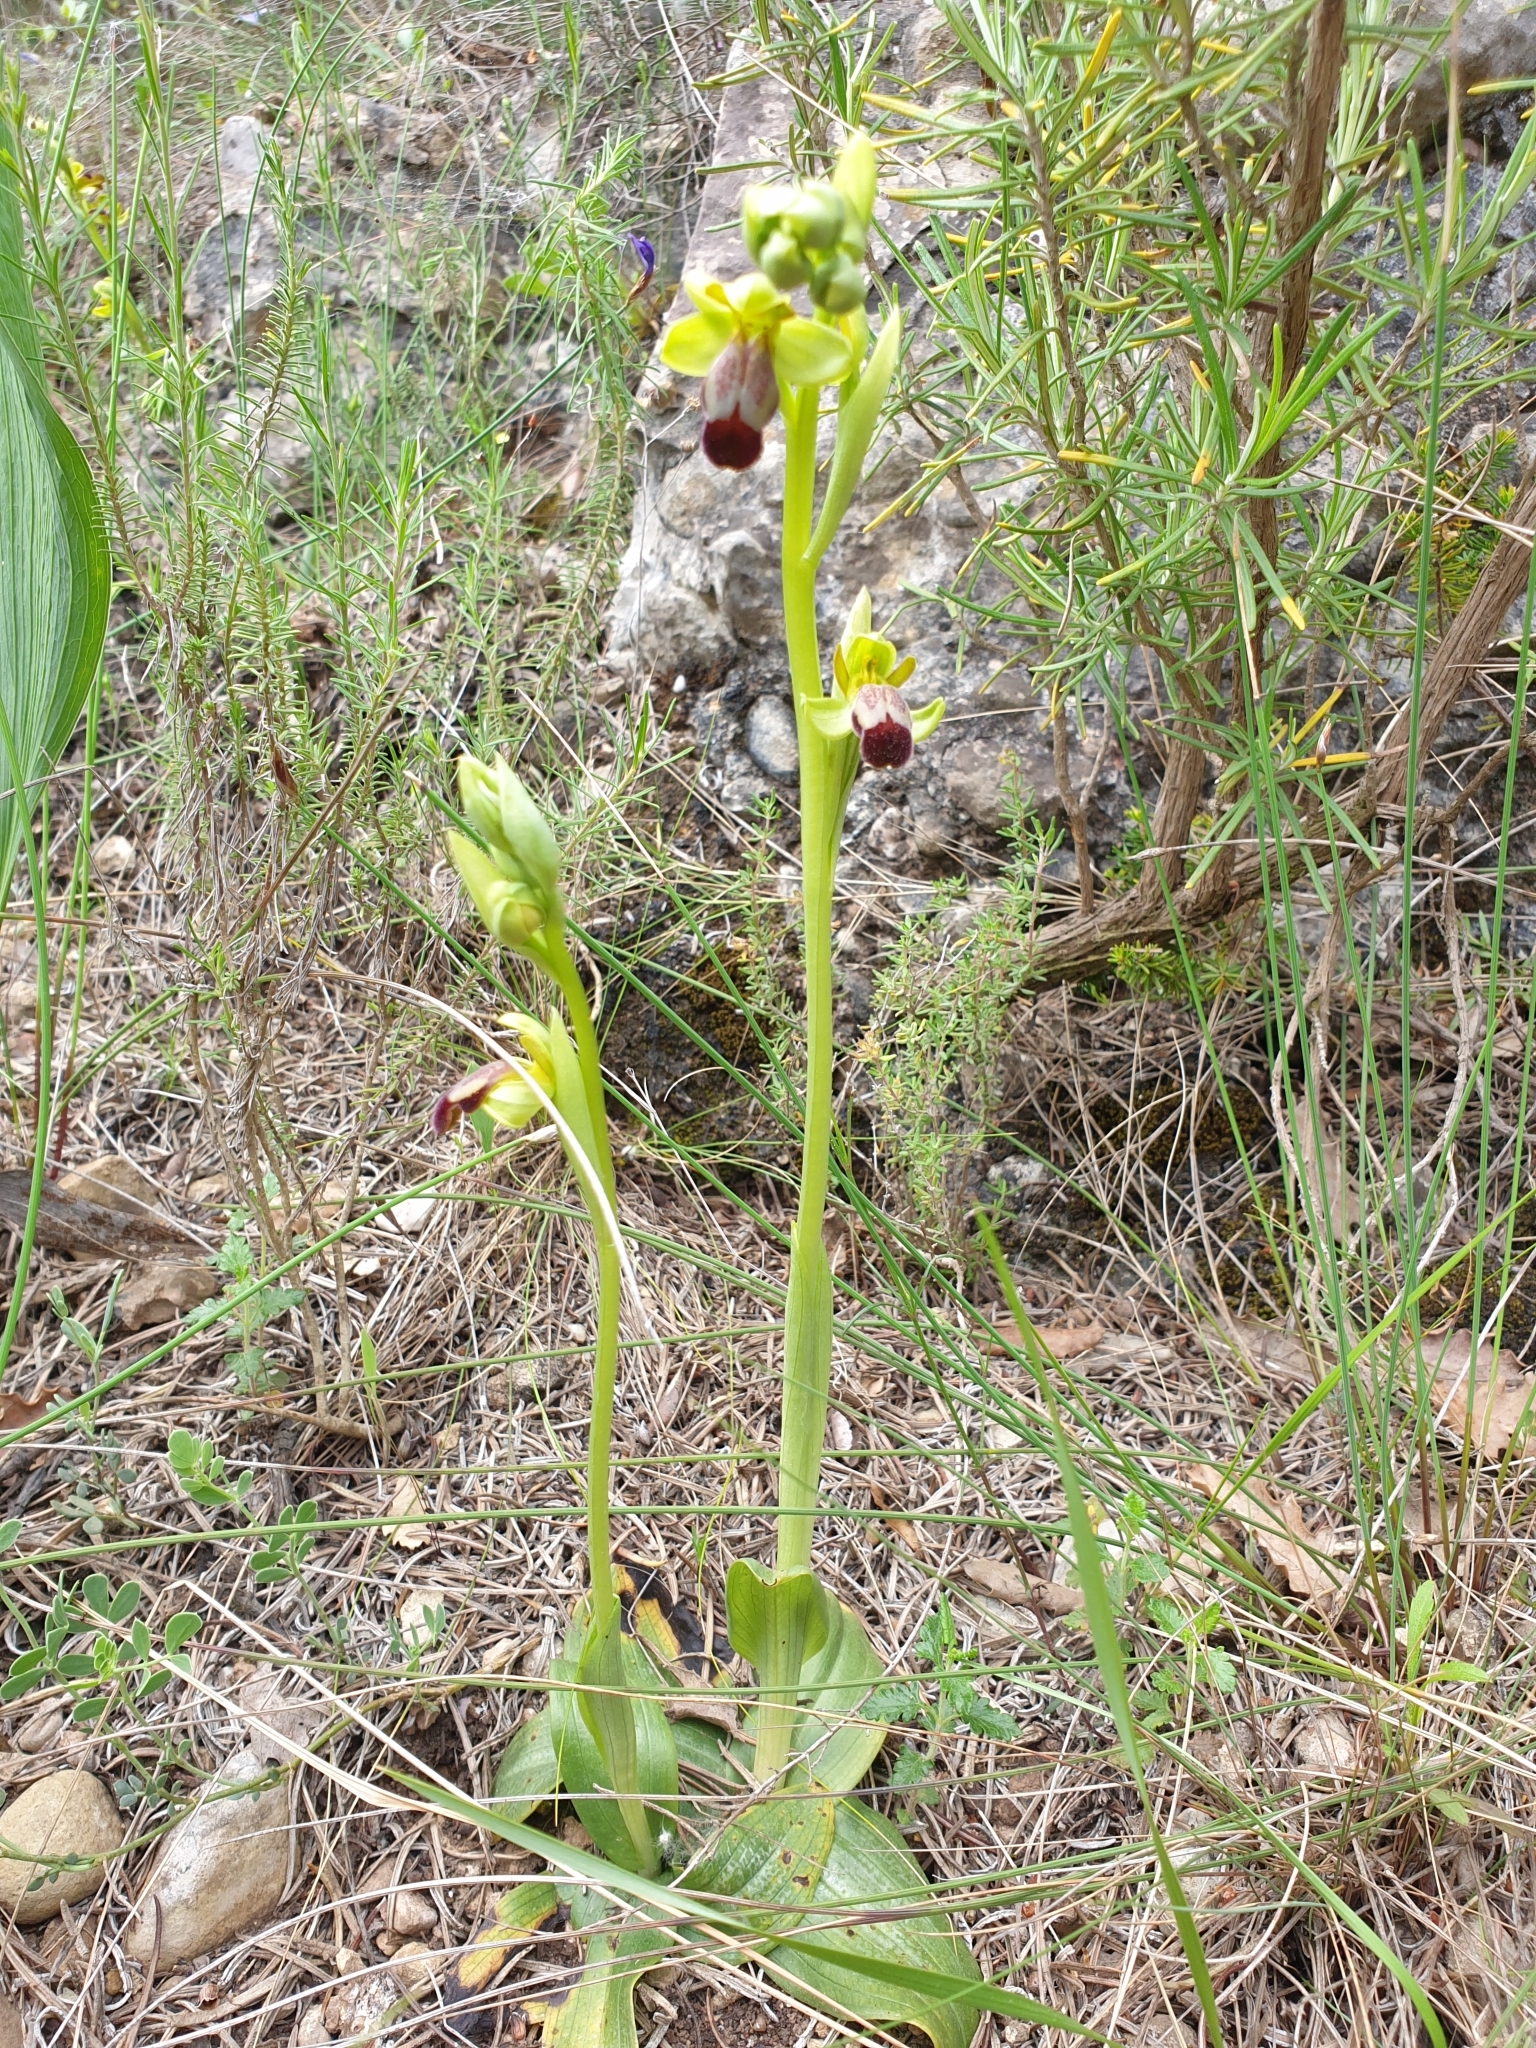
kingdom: Plantae
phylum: Tracheophyta
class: Liliopsida
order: Asparagales
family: Orchidaceae
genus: Ophrys
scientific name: Ophrys fusca
